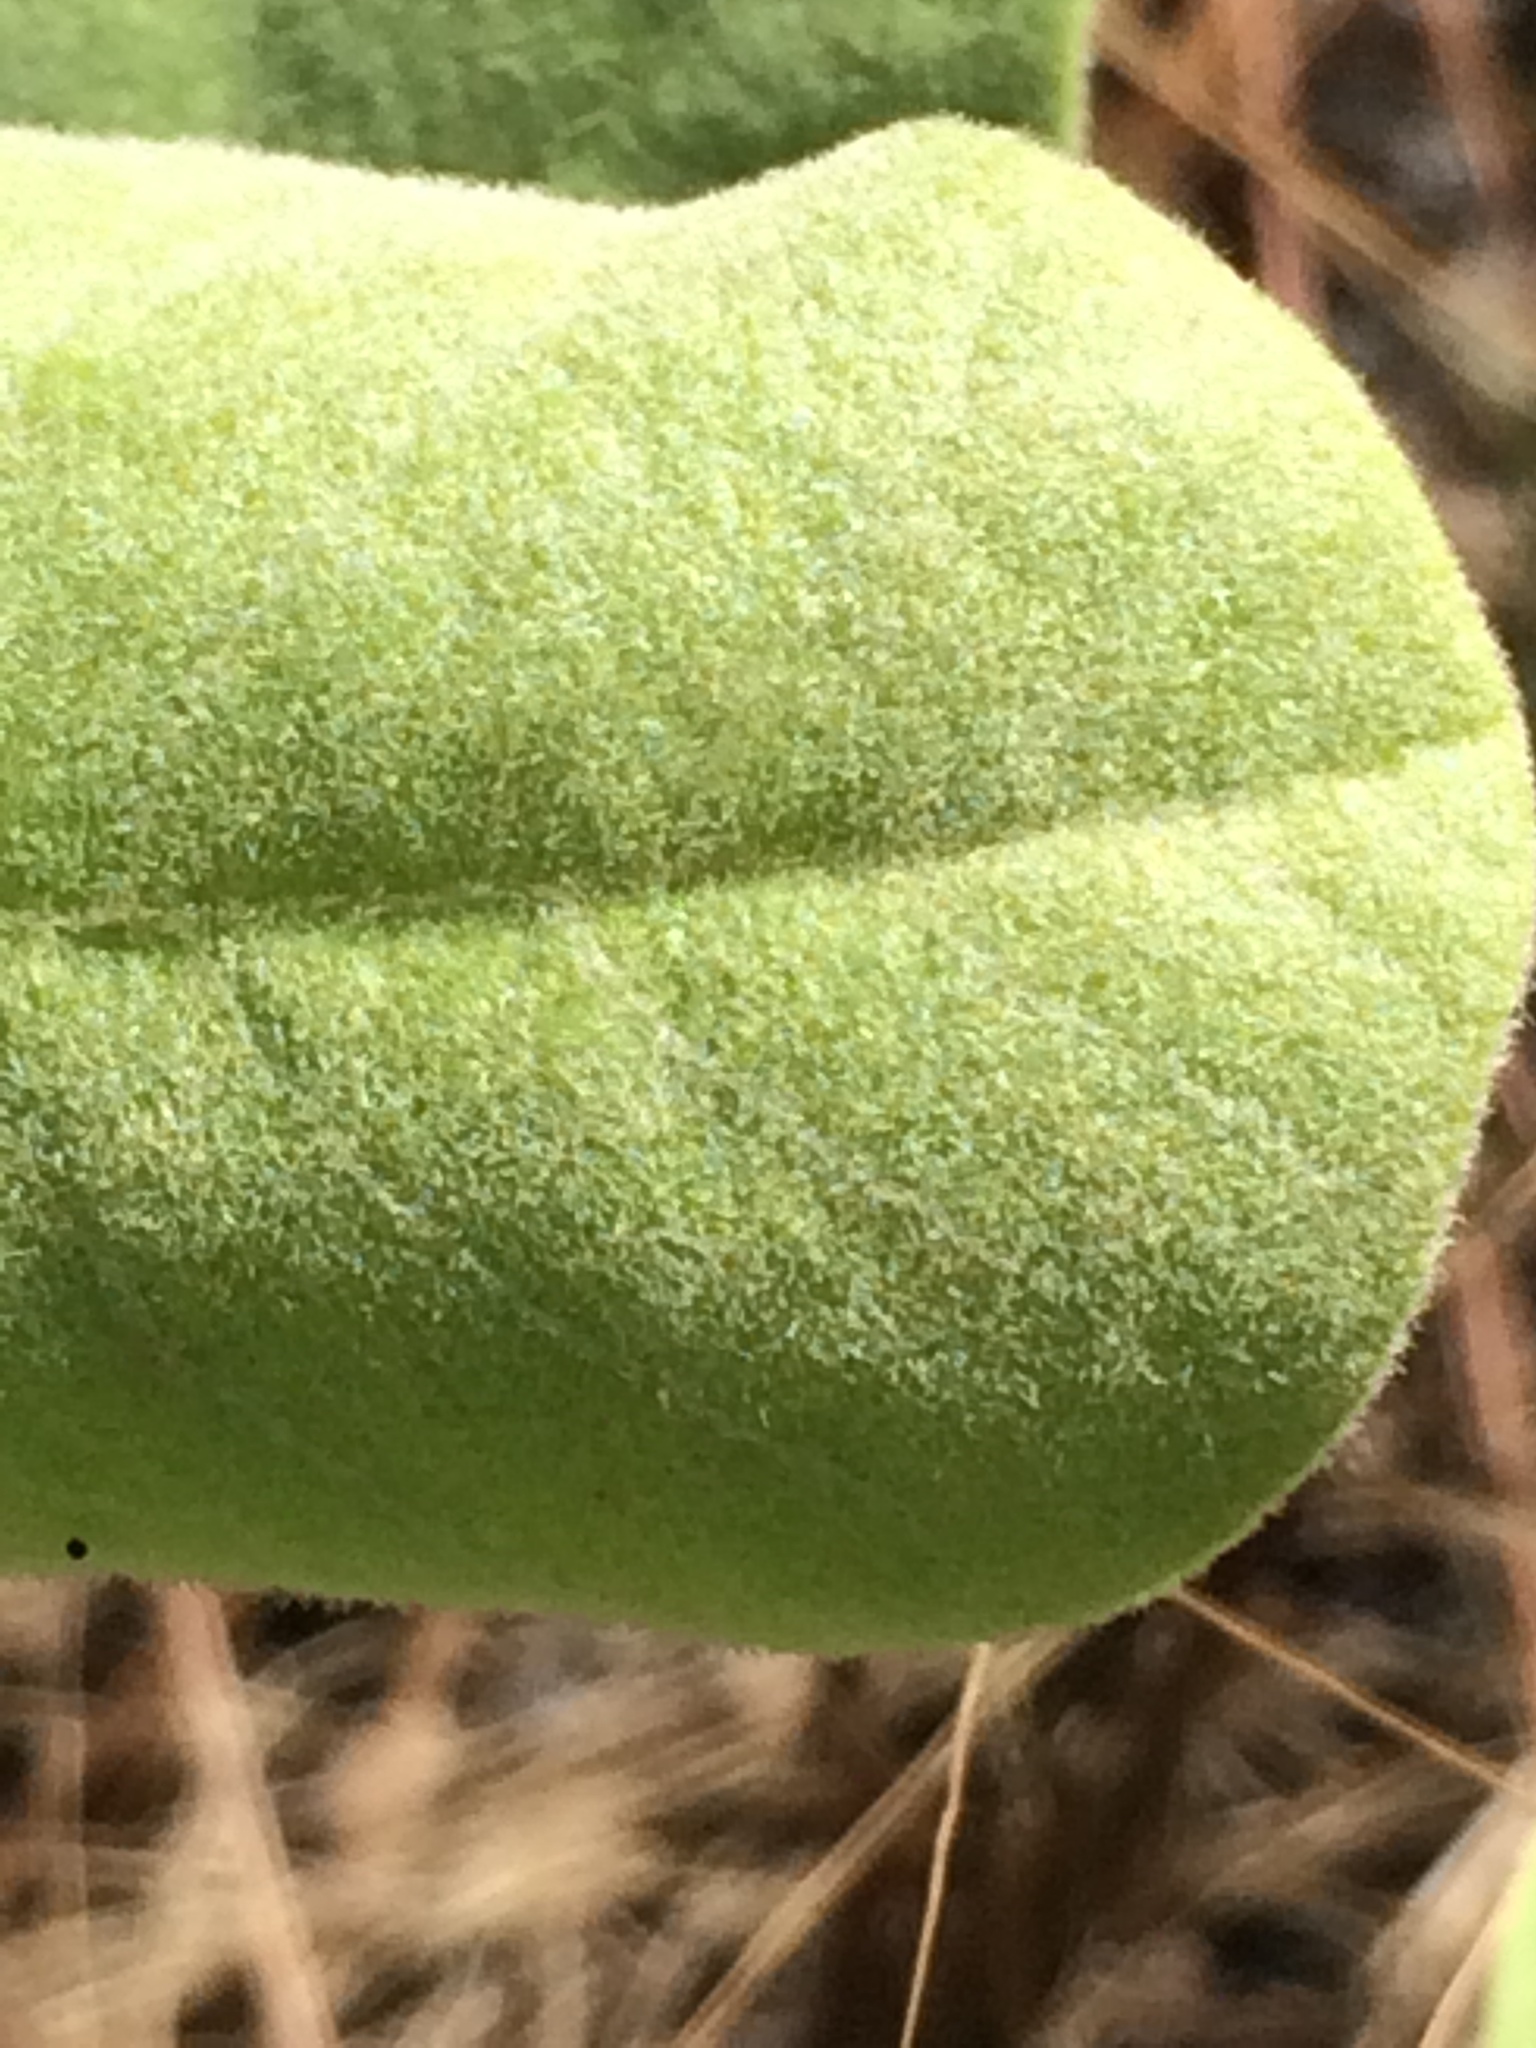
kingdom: Plantae
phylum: Tracheophyta
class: Magnoliopsida
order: Magnoliales
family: Annonaceae
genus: Asimina
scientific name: Asimina speciosa
